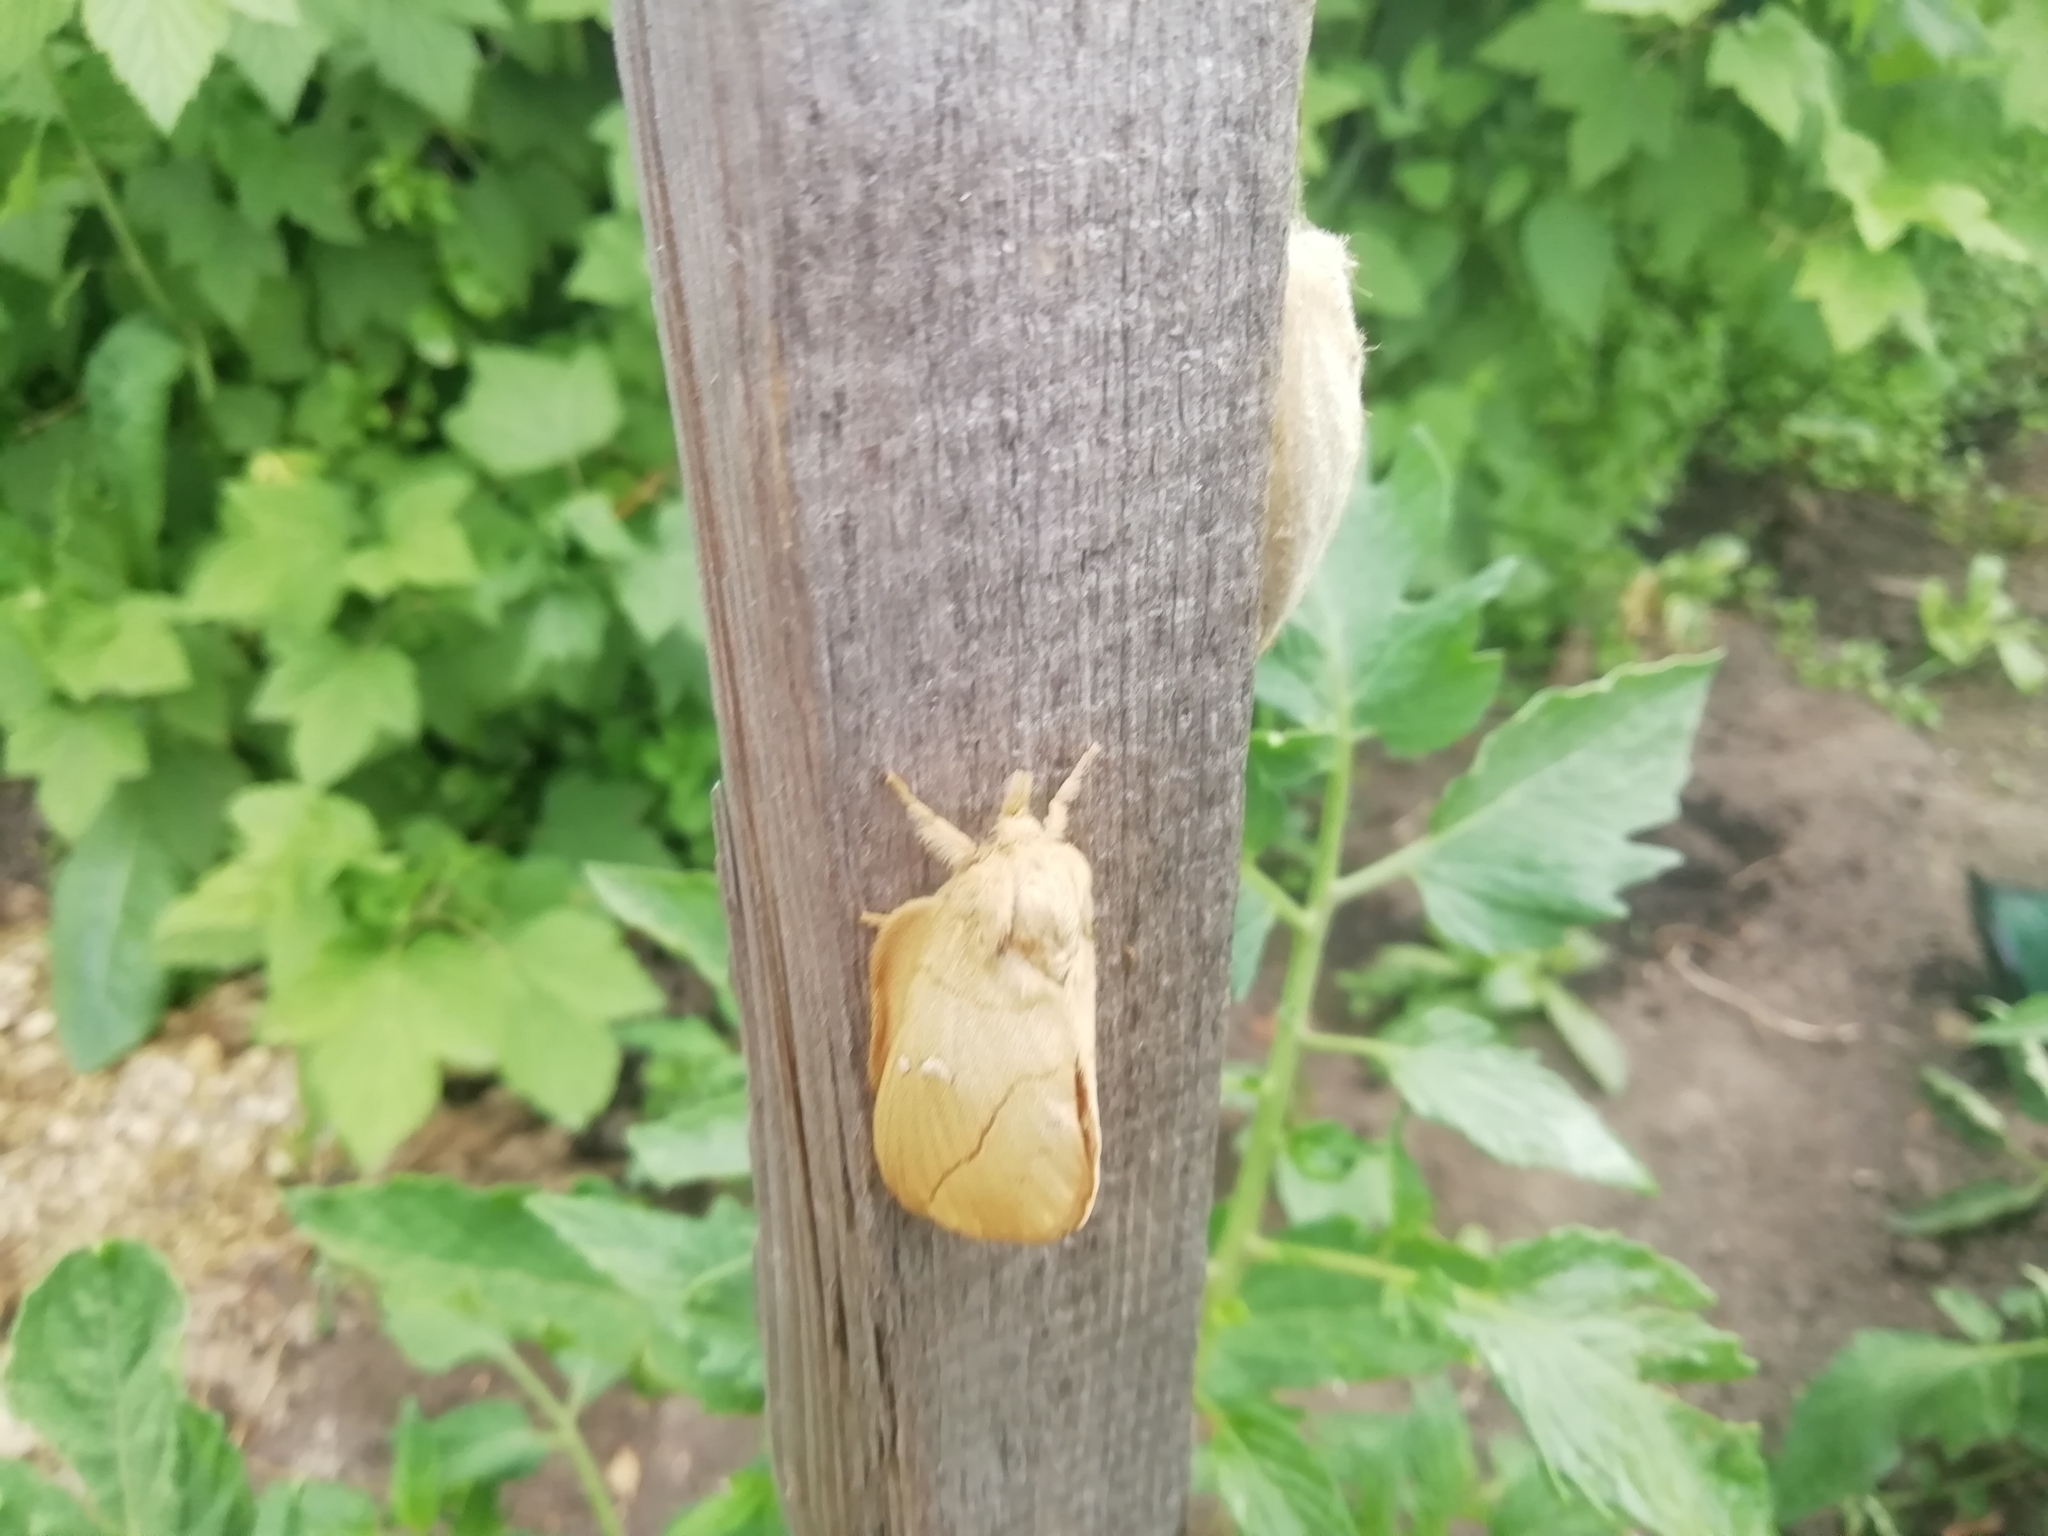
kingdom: Animalia
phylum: Arthropoda
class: Insecta
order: Lepidoptera
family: Lasiocampidae
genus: Euthrix
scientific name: Euthrix potatoria
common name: Drinker
